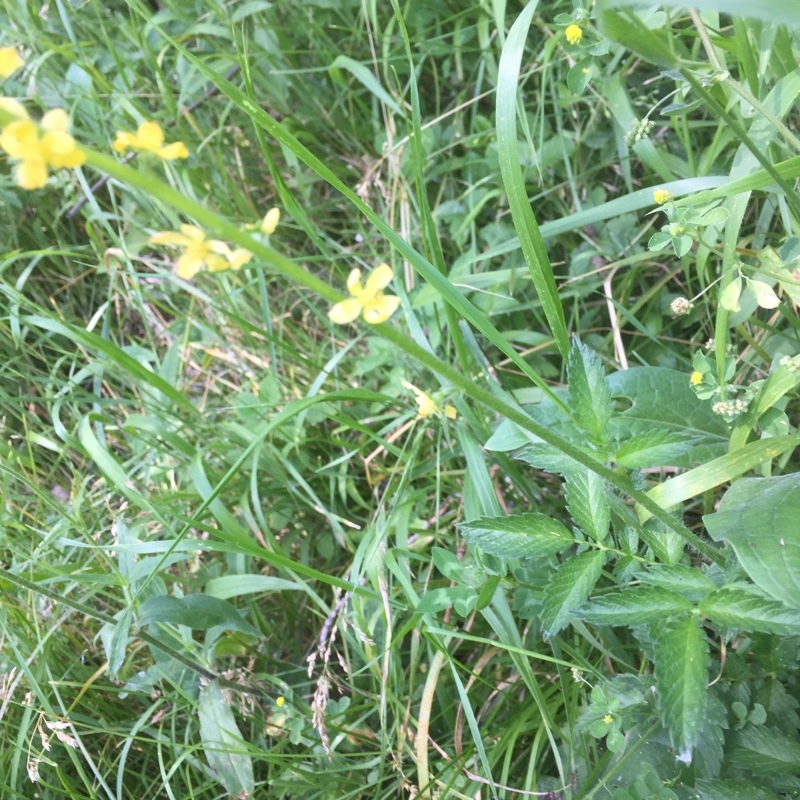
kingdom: Plantae
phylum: Tracheophyta
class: Magnoliopsida
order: Rosales
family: Rosaceae
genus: Agrimonia
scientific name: Agrimonia eupatoria
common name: Agrimony
